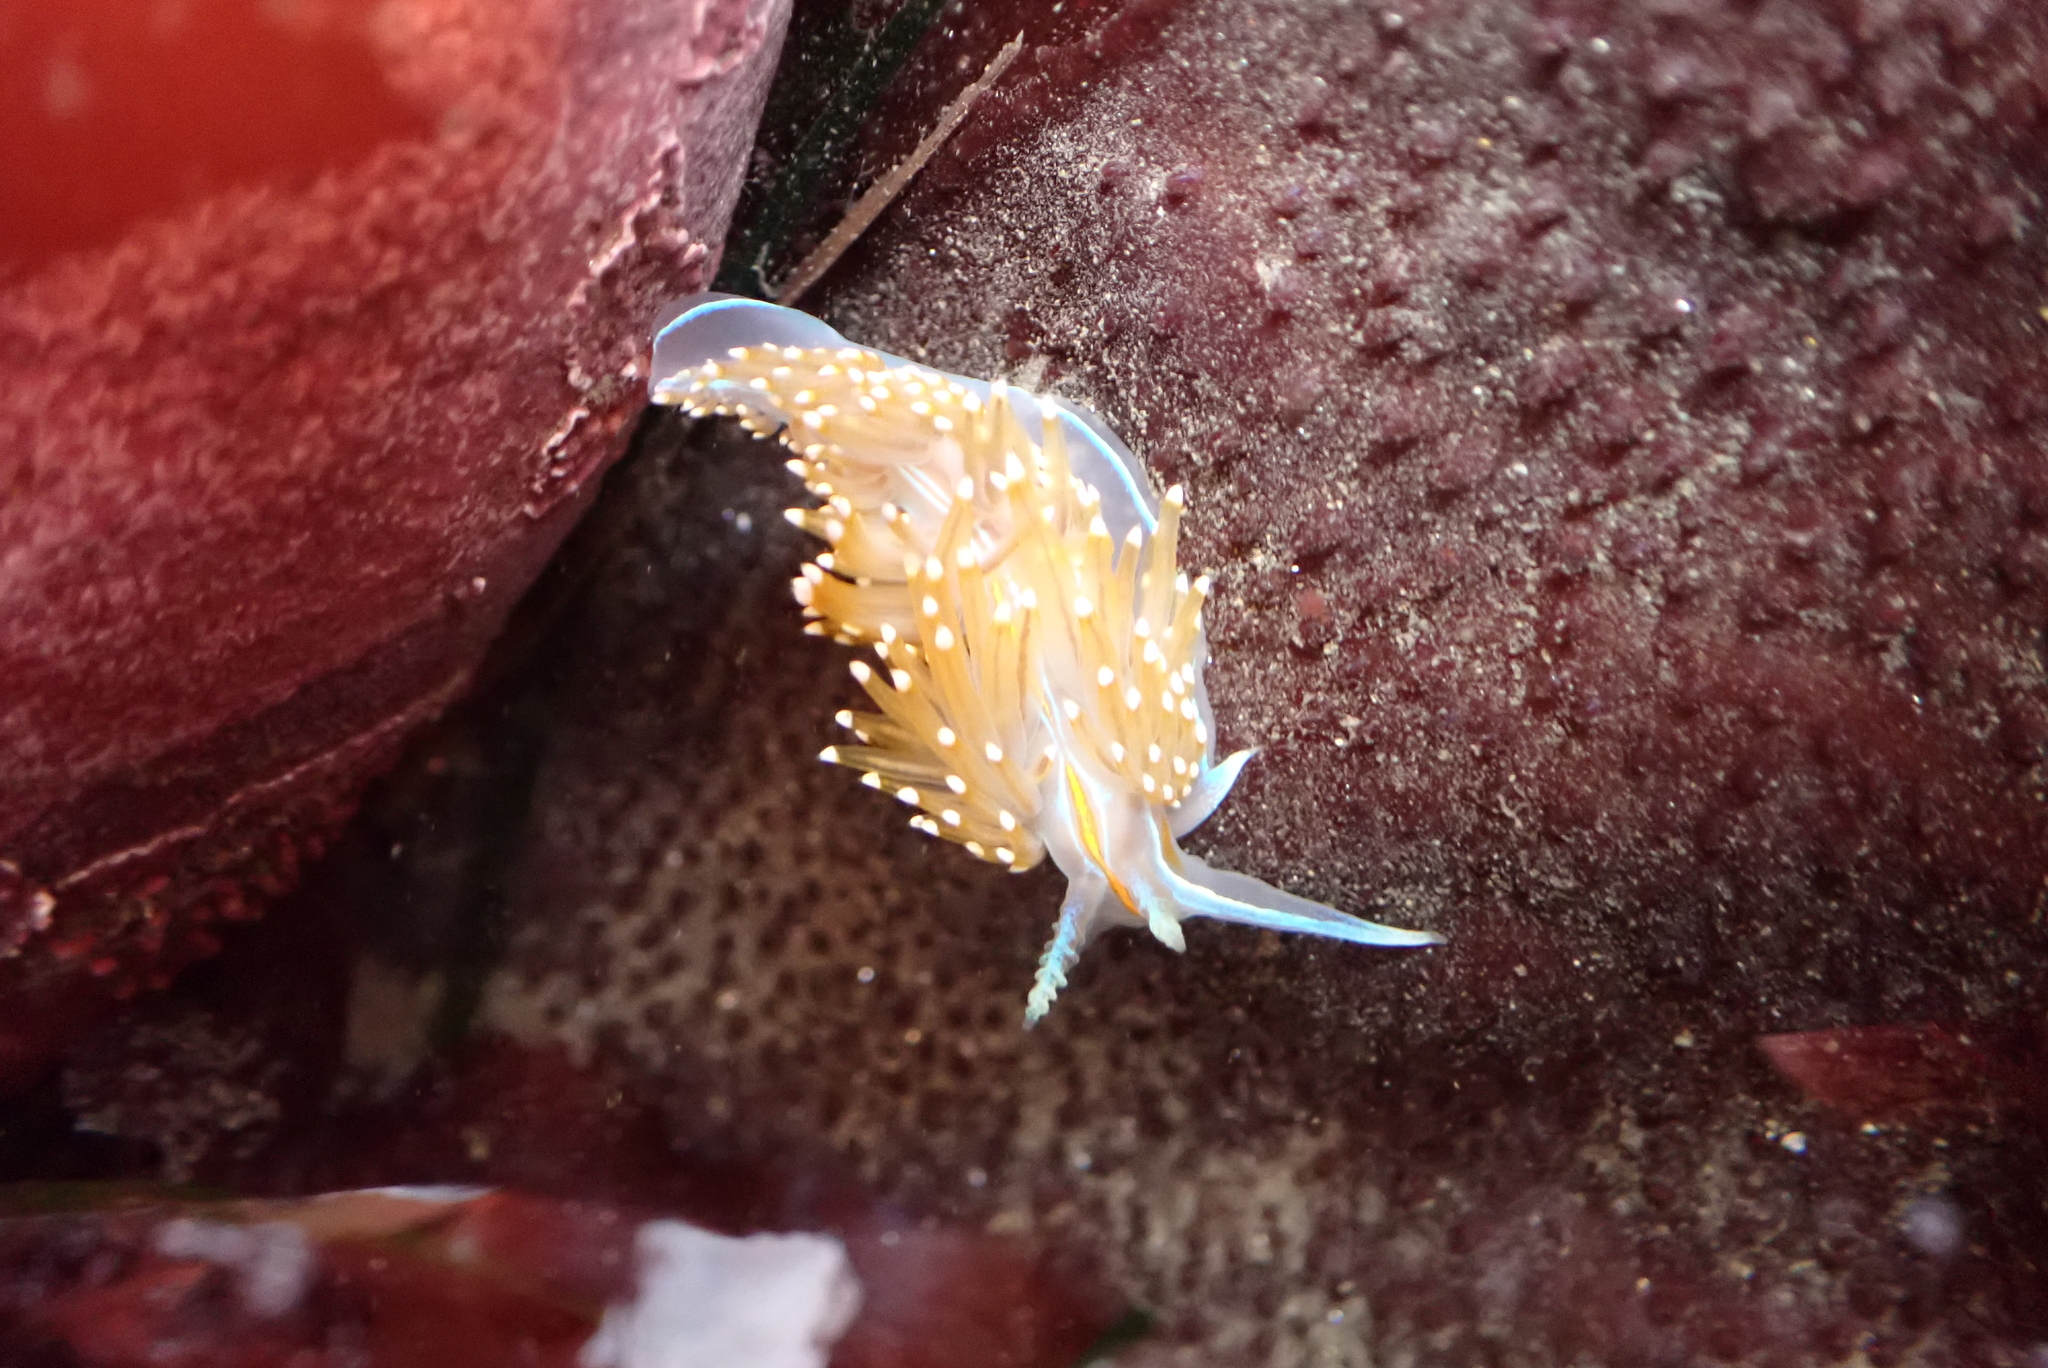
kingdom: Animalia
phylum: Mollusca
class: Gastropoda
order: Nudibranchia
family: Myrrhinidae
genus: Hermissenda
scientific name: Hermissenda opalescens
